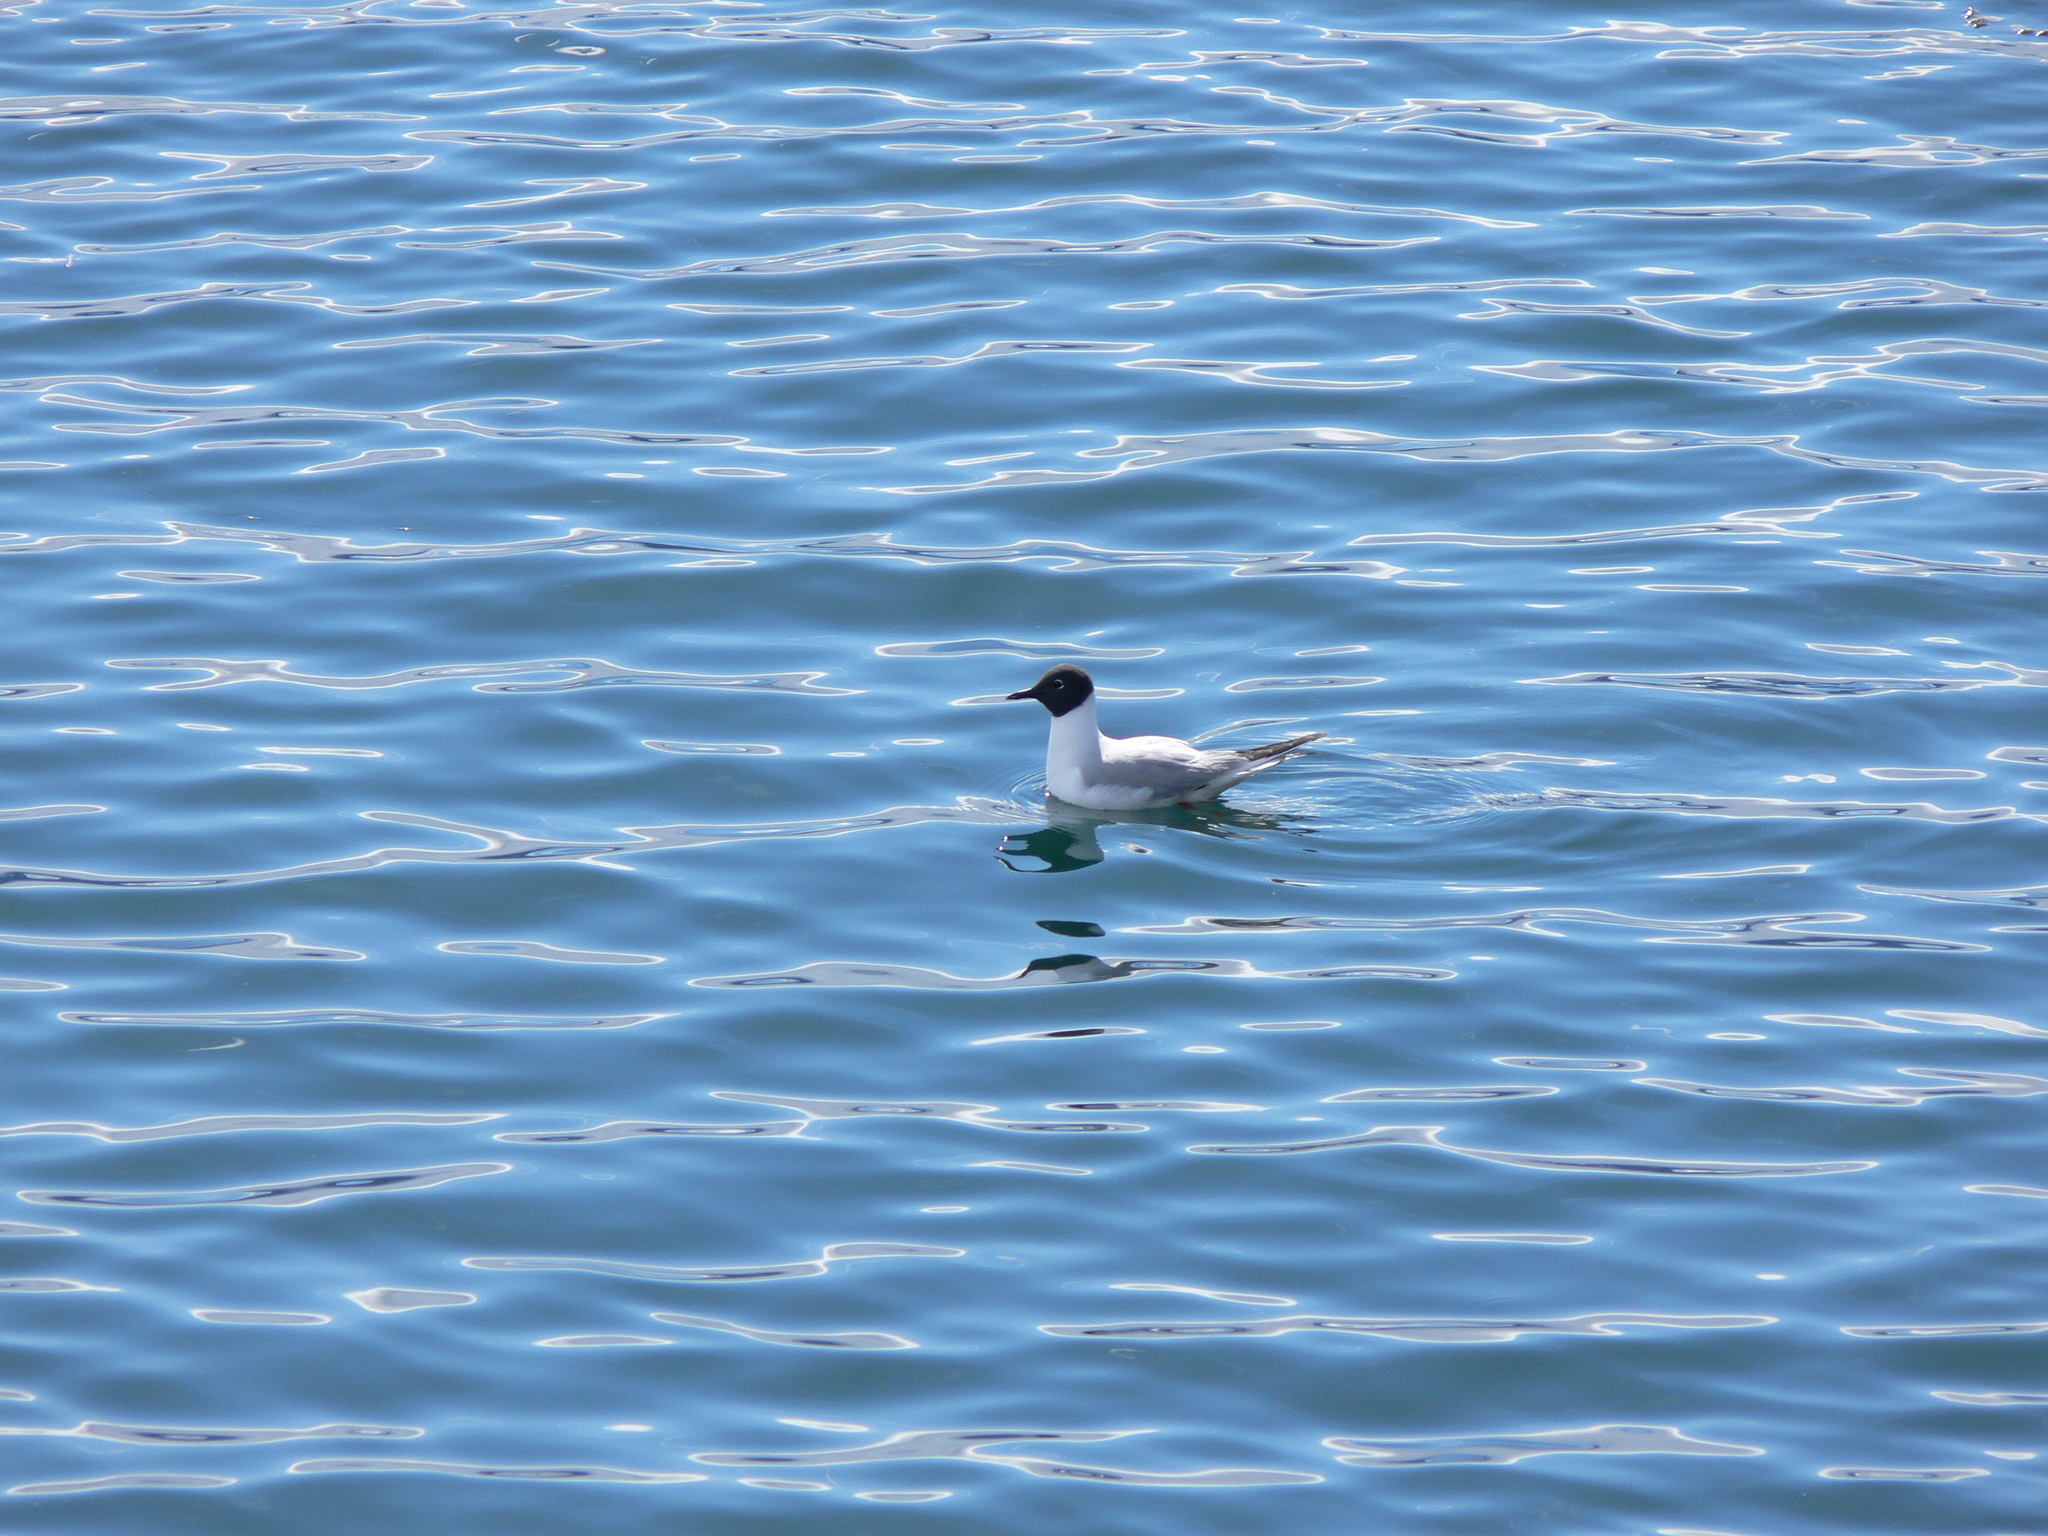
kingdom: Animalia
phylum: Chordata
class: Aves
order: Charadriiformes
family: Laridae
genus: Chroicocephalus
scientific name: Chroicocephalus philadelphia
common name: Bonaparte's gull
